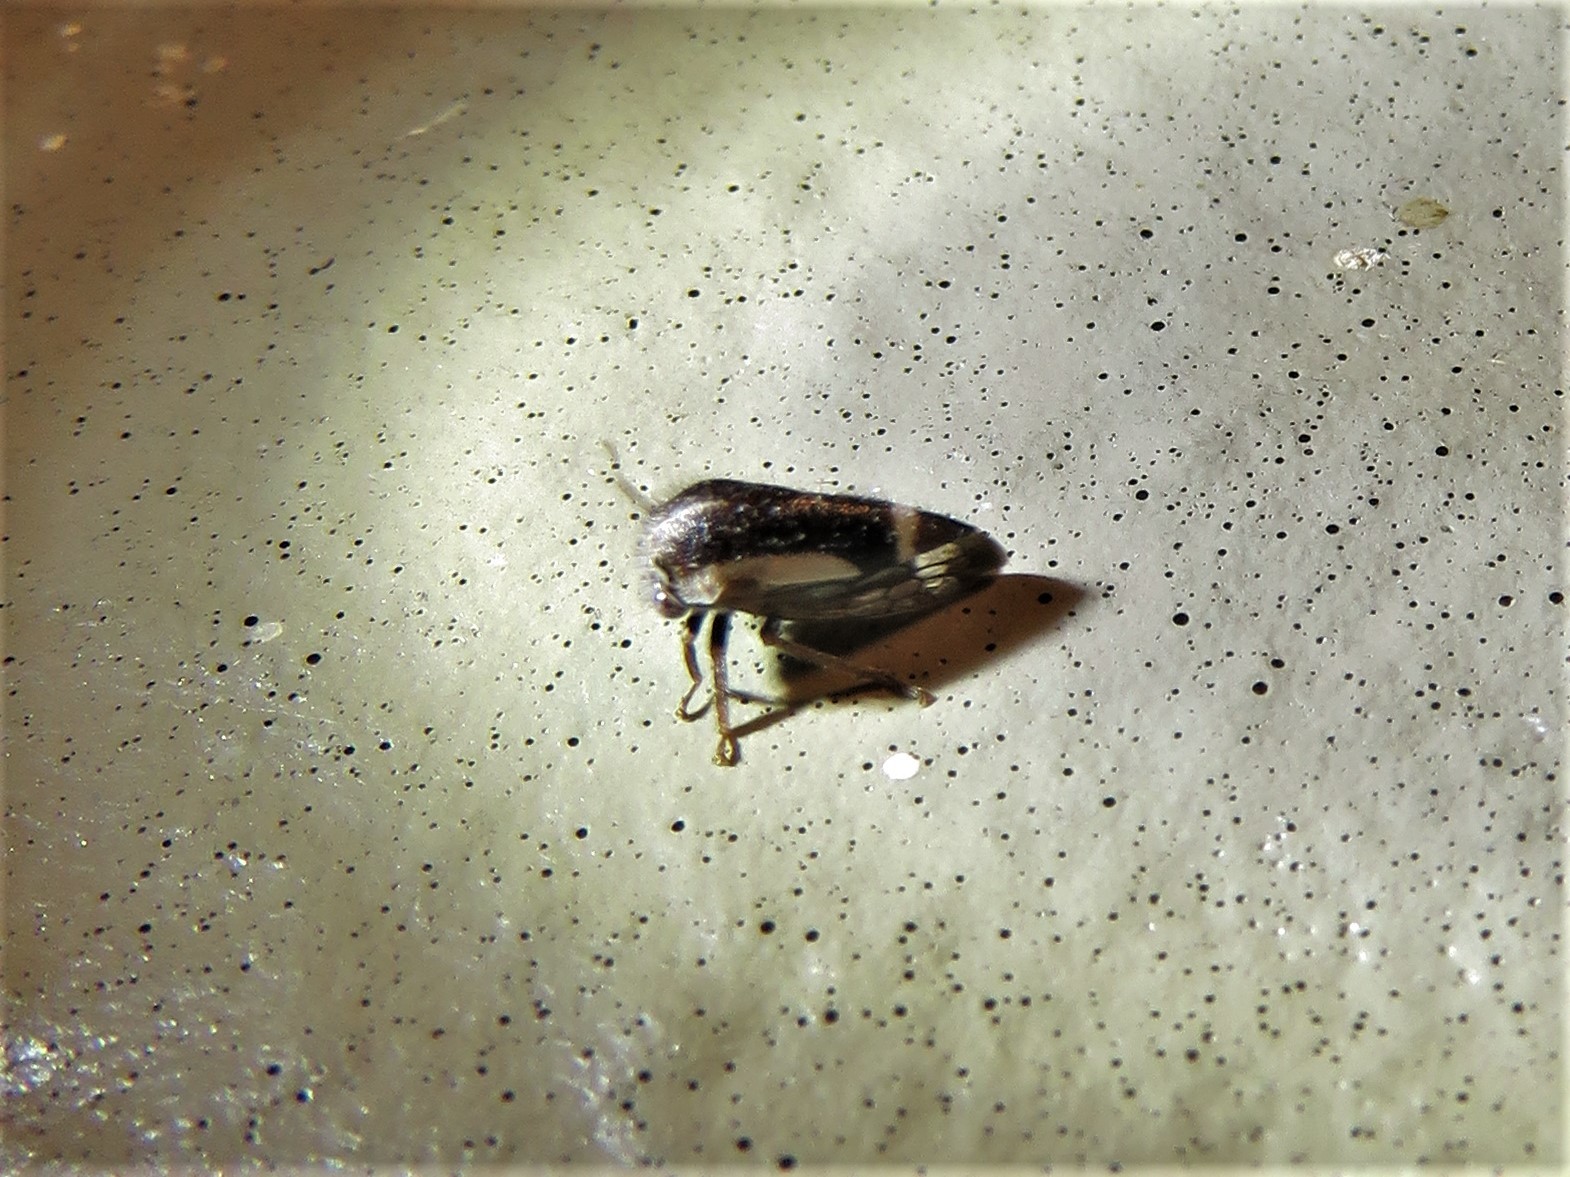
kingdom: Animalia
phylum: Arthropoda
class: Insecta
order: Hemiptera
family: Membracidae
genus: Ophiderma
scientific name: Ophiderma flavicephala
